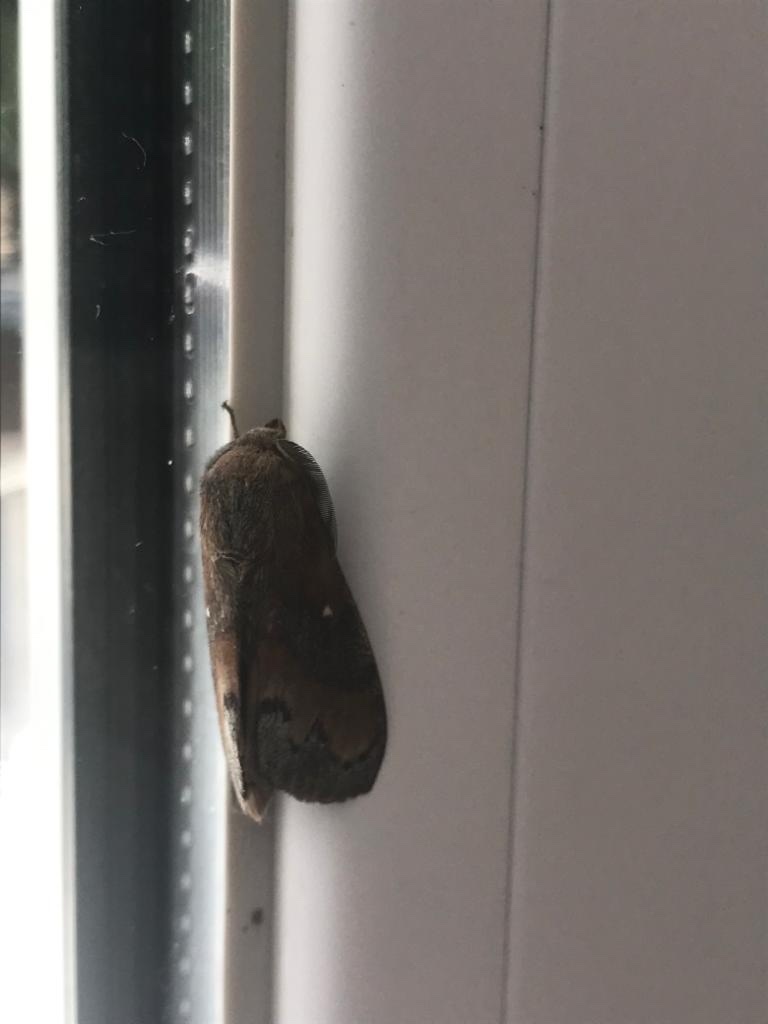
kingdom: Animalia
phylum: Arthropoda
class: Insecta
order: Lepidoptera
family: Lasiocampidae
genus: Dendrolimus
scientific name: Dendrolimus pini
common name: Pine-tree lappet
